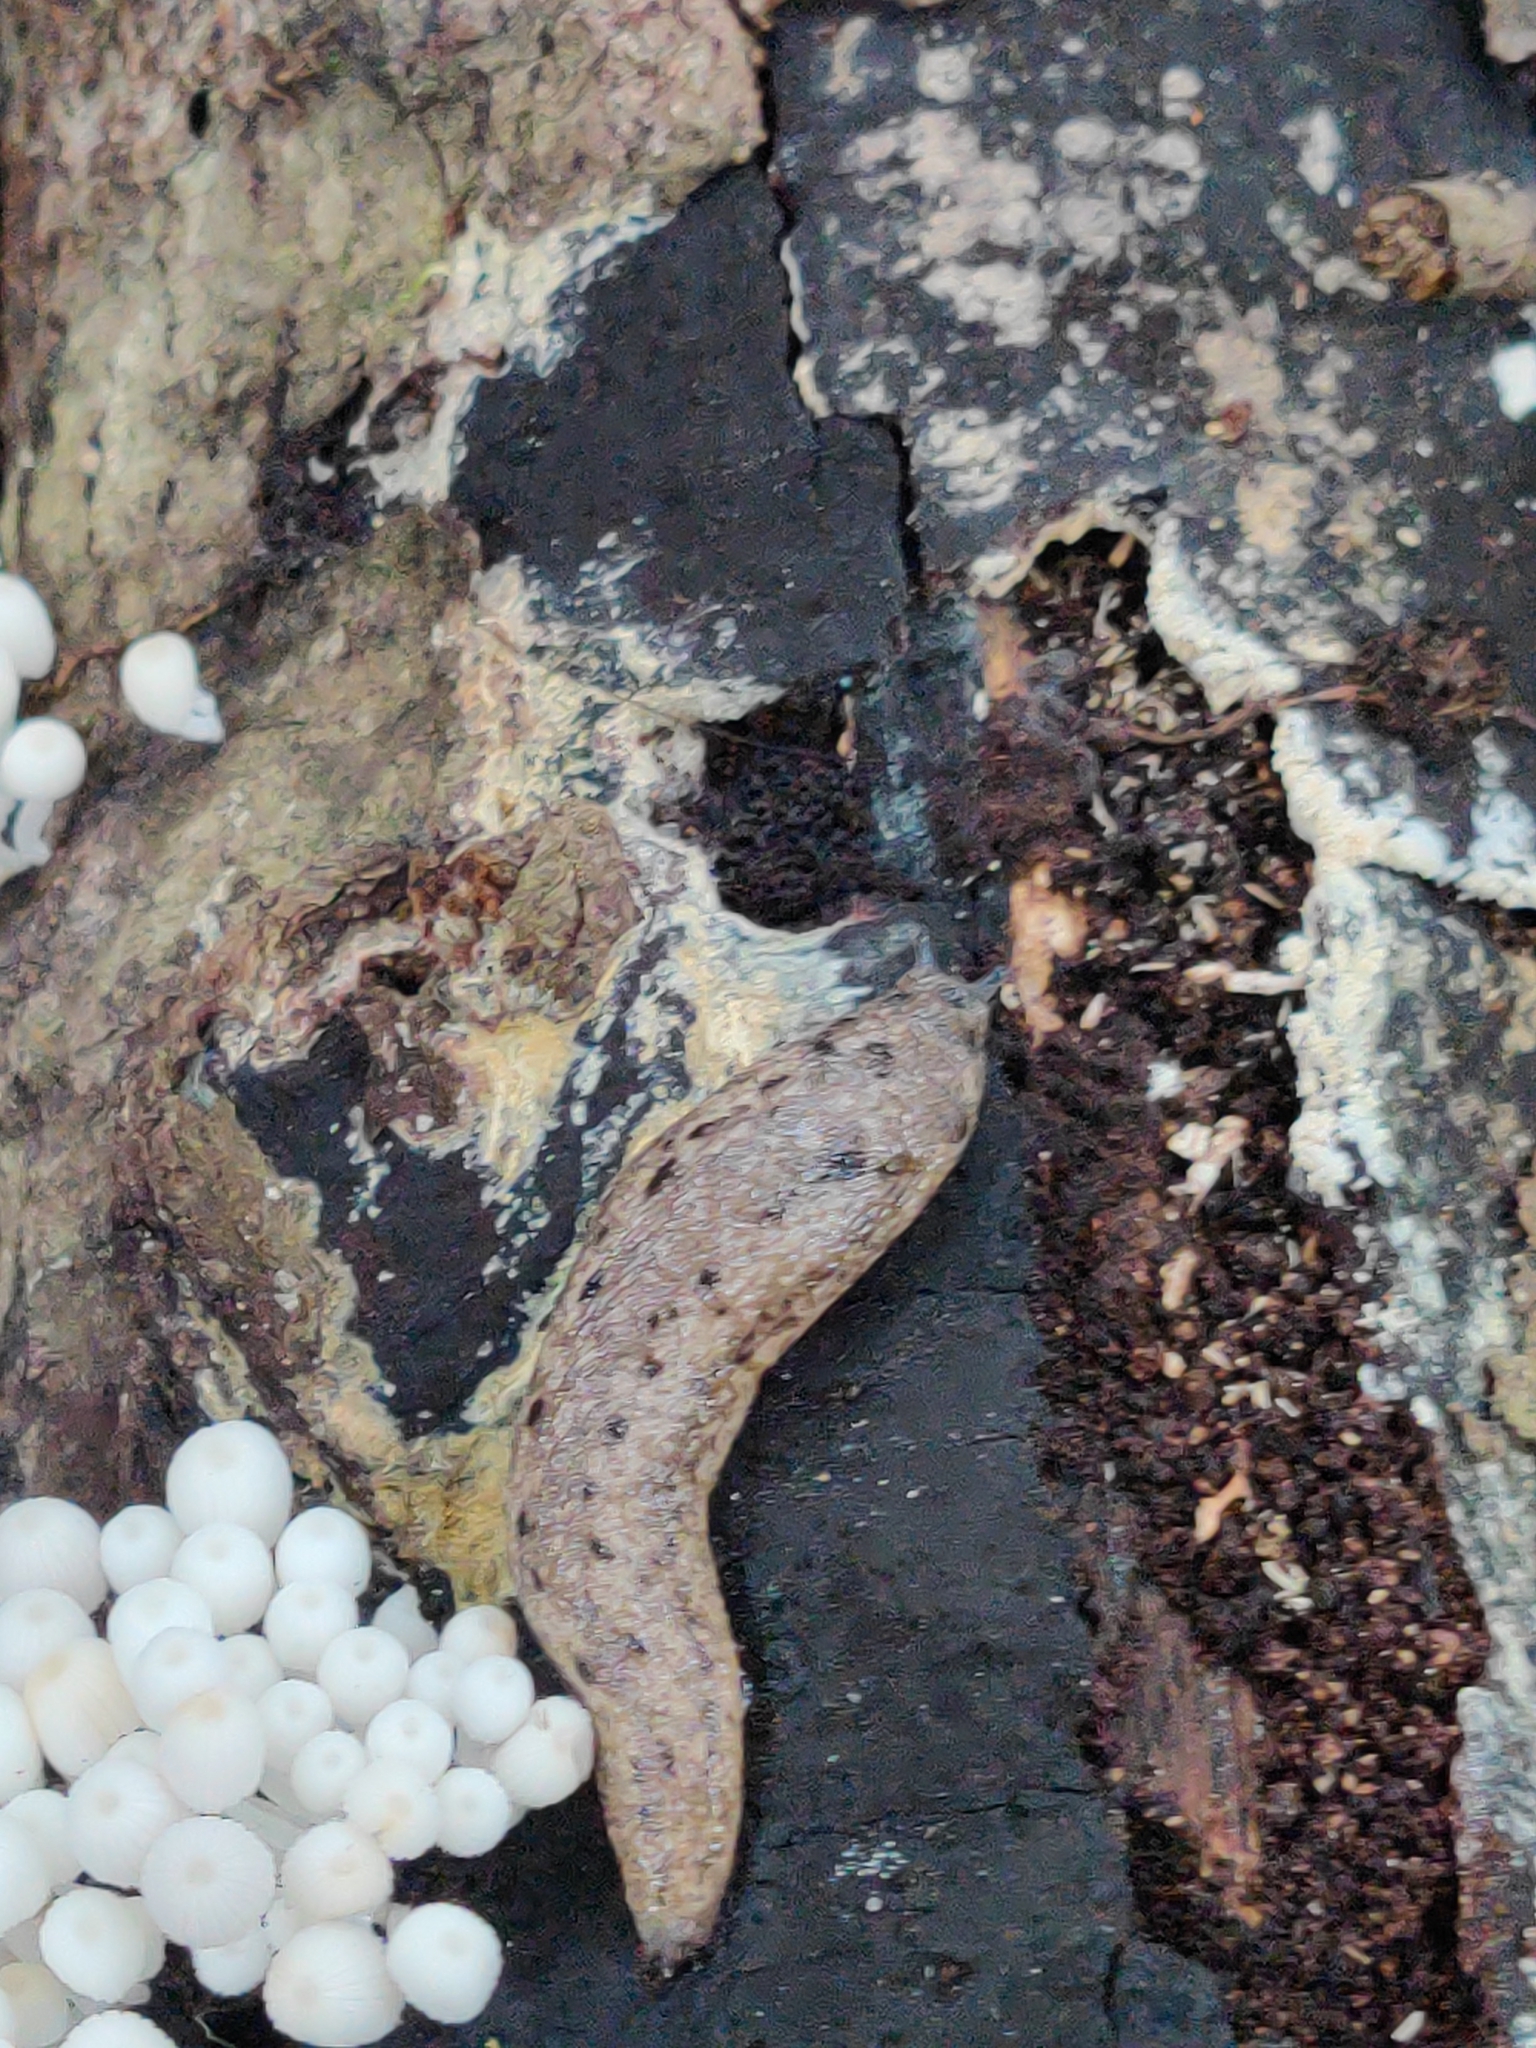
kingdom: Animalia
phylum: Mollusca
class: Gastropoda
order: Stylommatophora
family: Philomycidae
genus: Philomycus
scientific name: Philomycus carolinianus
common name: Carolina mantleslug
